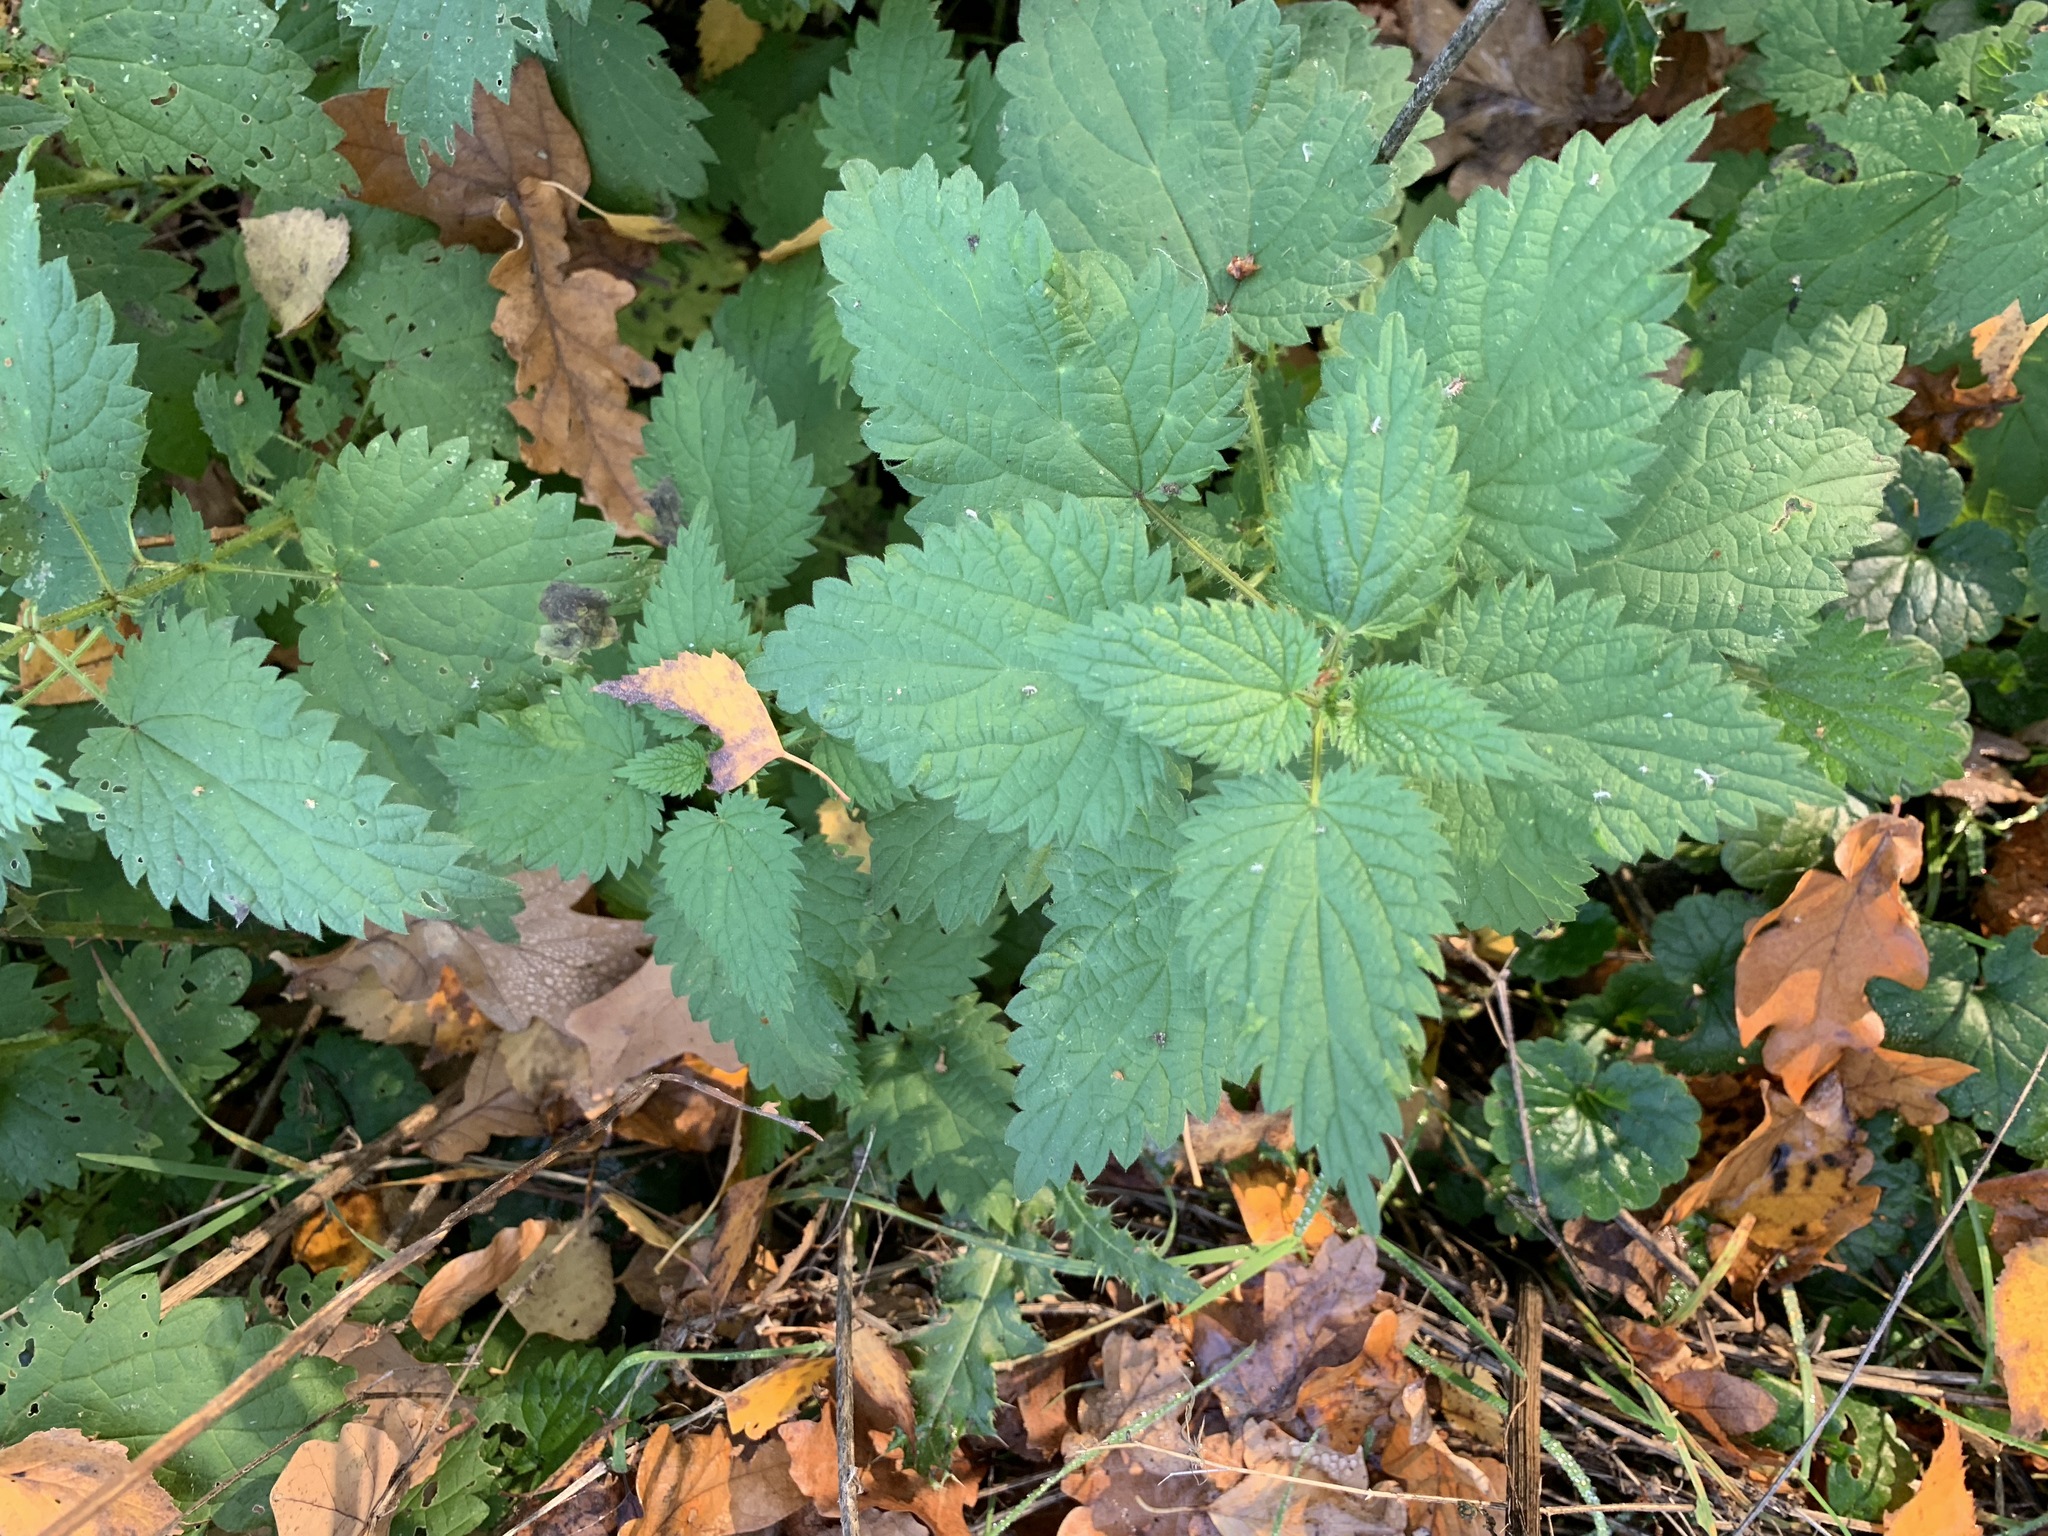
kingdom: Plantae
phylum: Tracheophyta
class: Magnoliopsida
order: Rosales
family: Urticaceae
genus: Urtica
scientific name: Urtica dioica
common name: Common nettle
